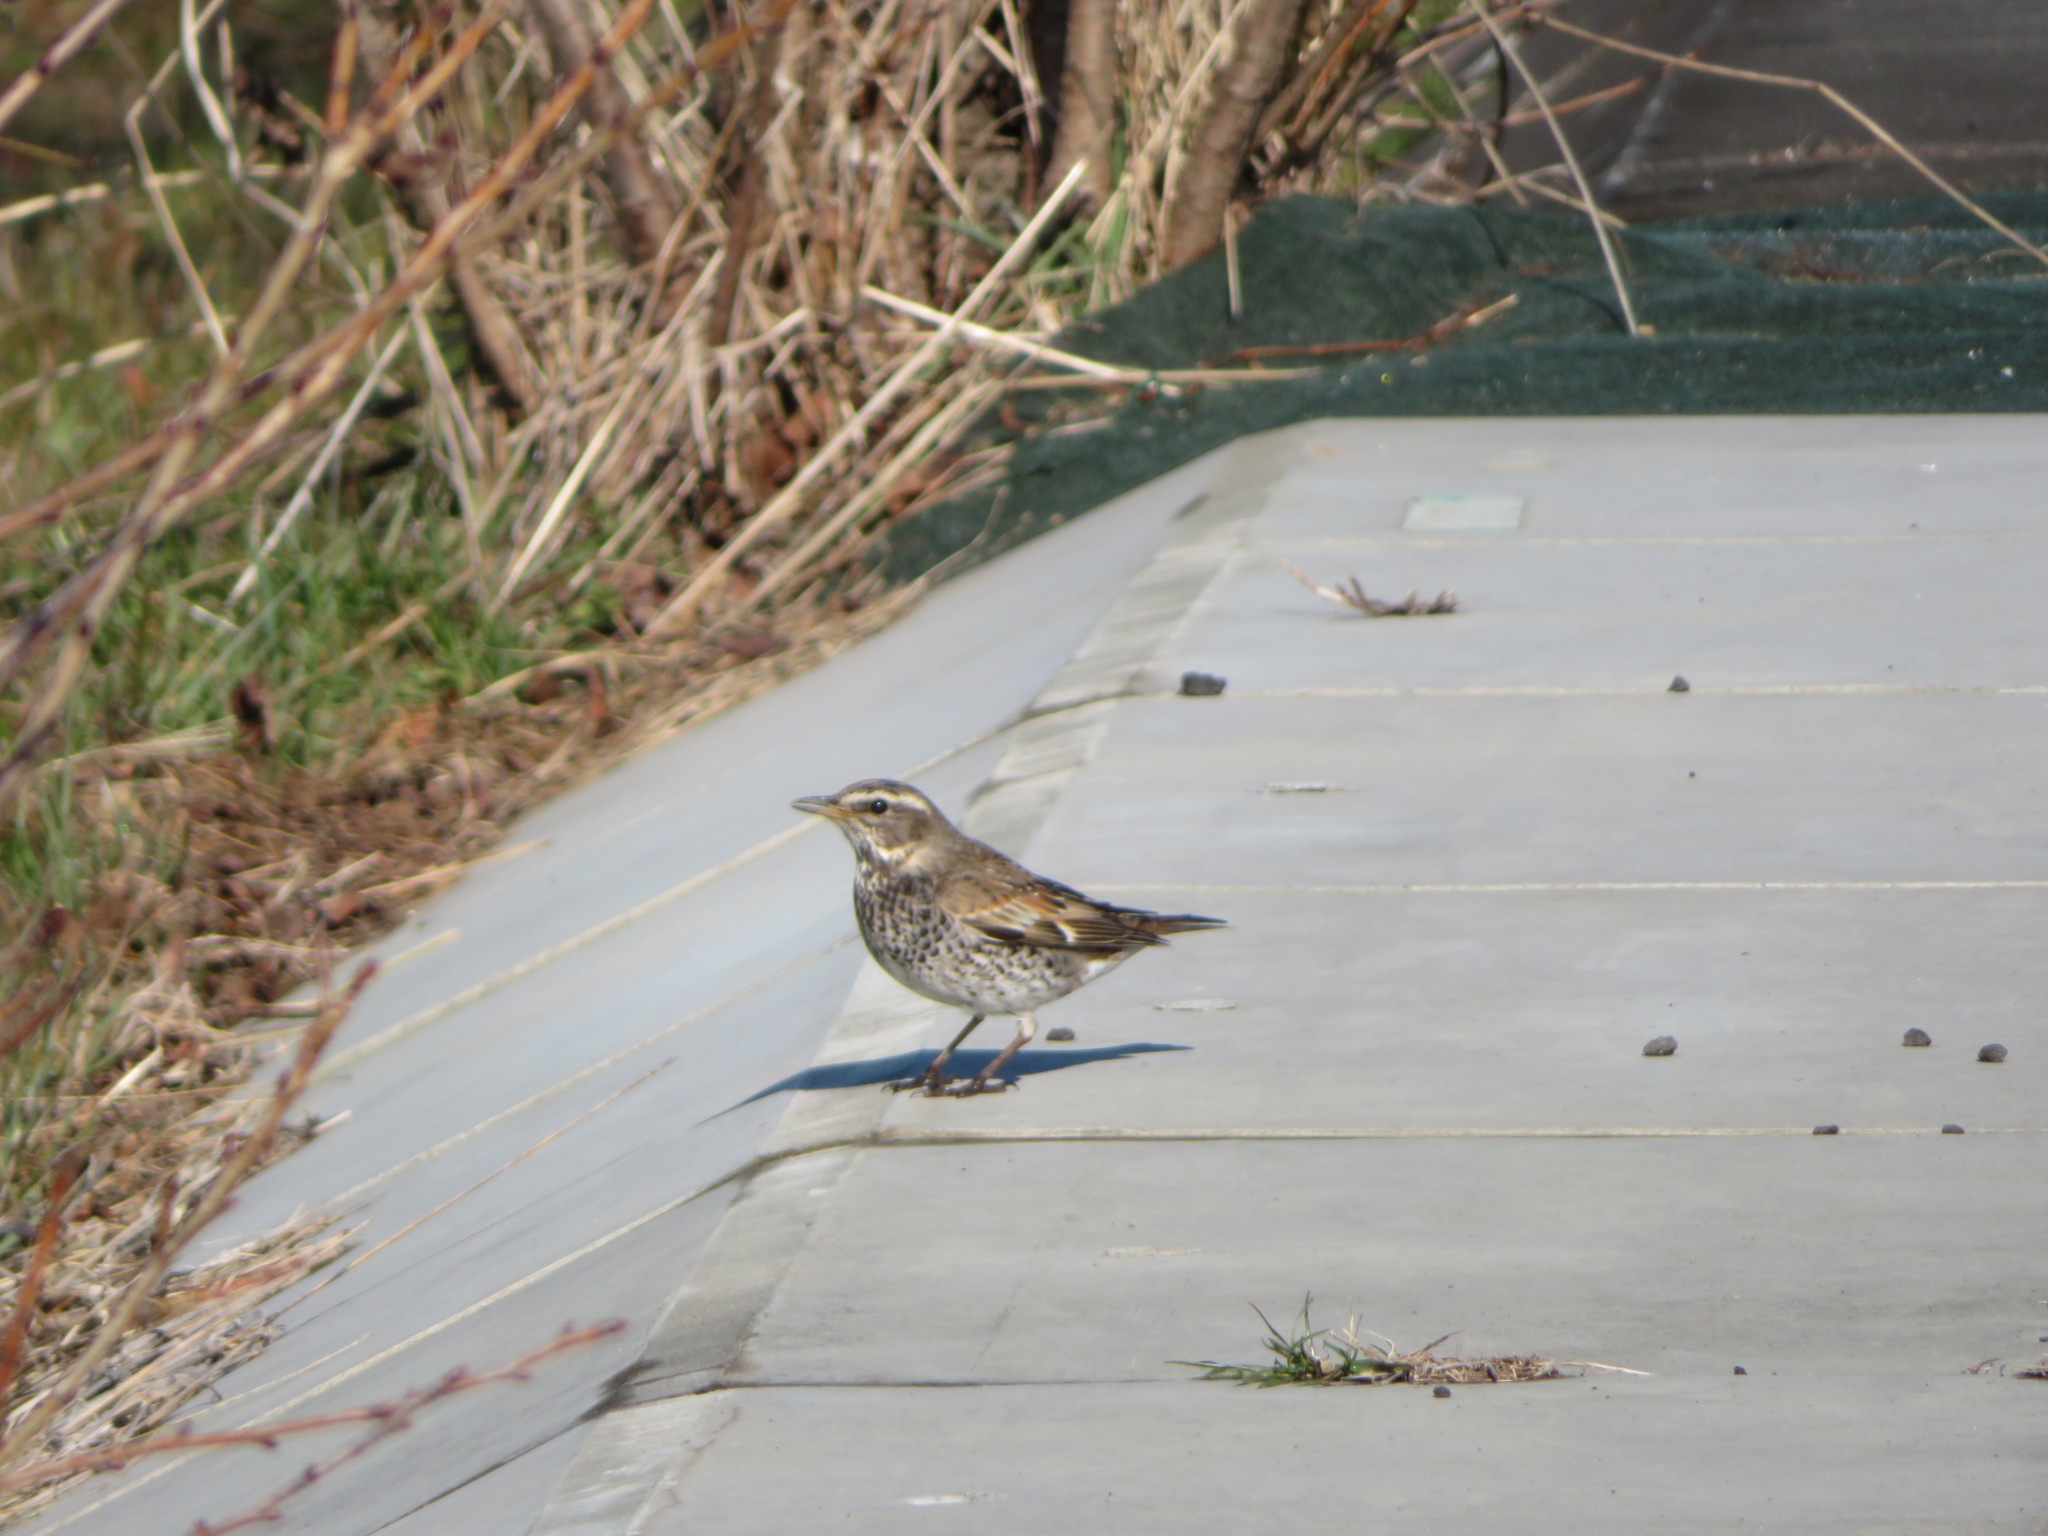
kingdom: Animalia
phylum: Chordata
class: Aves
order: Passeriformes
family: Turdidae
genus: Turdus
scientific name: Turdus eunomus
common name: Dusky thrush
